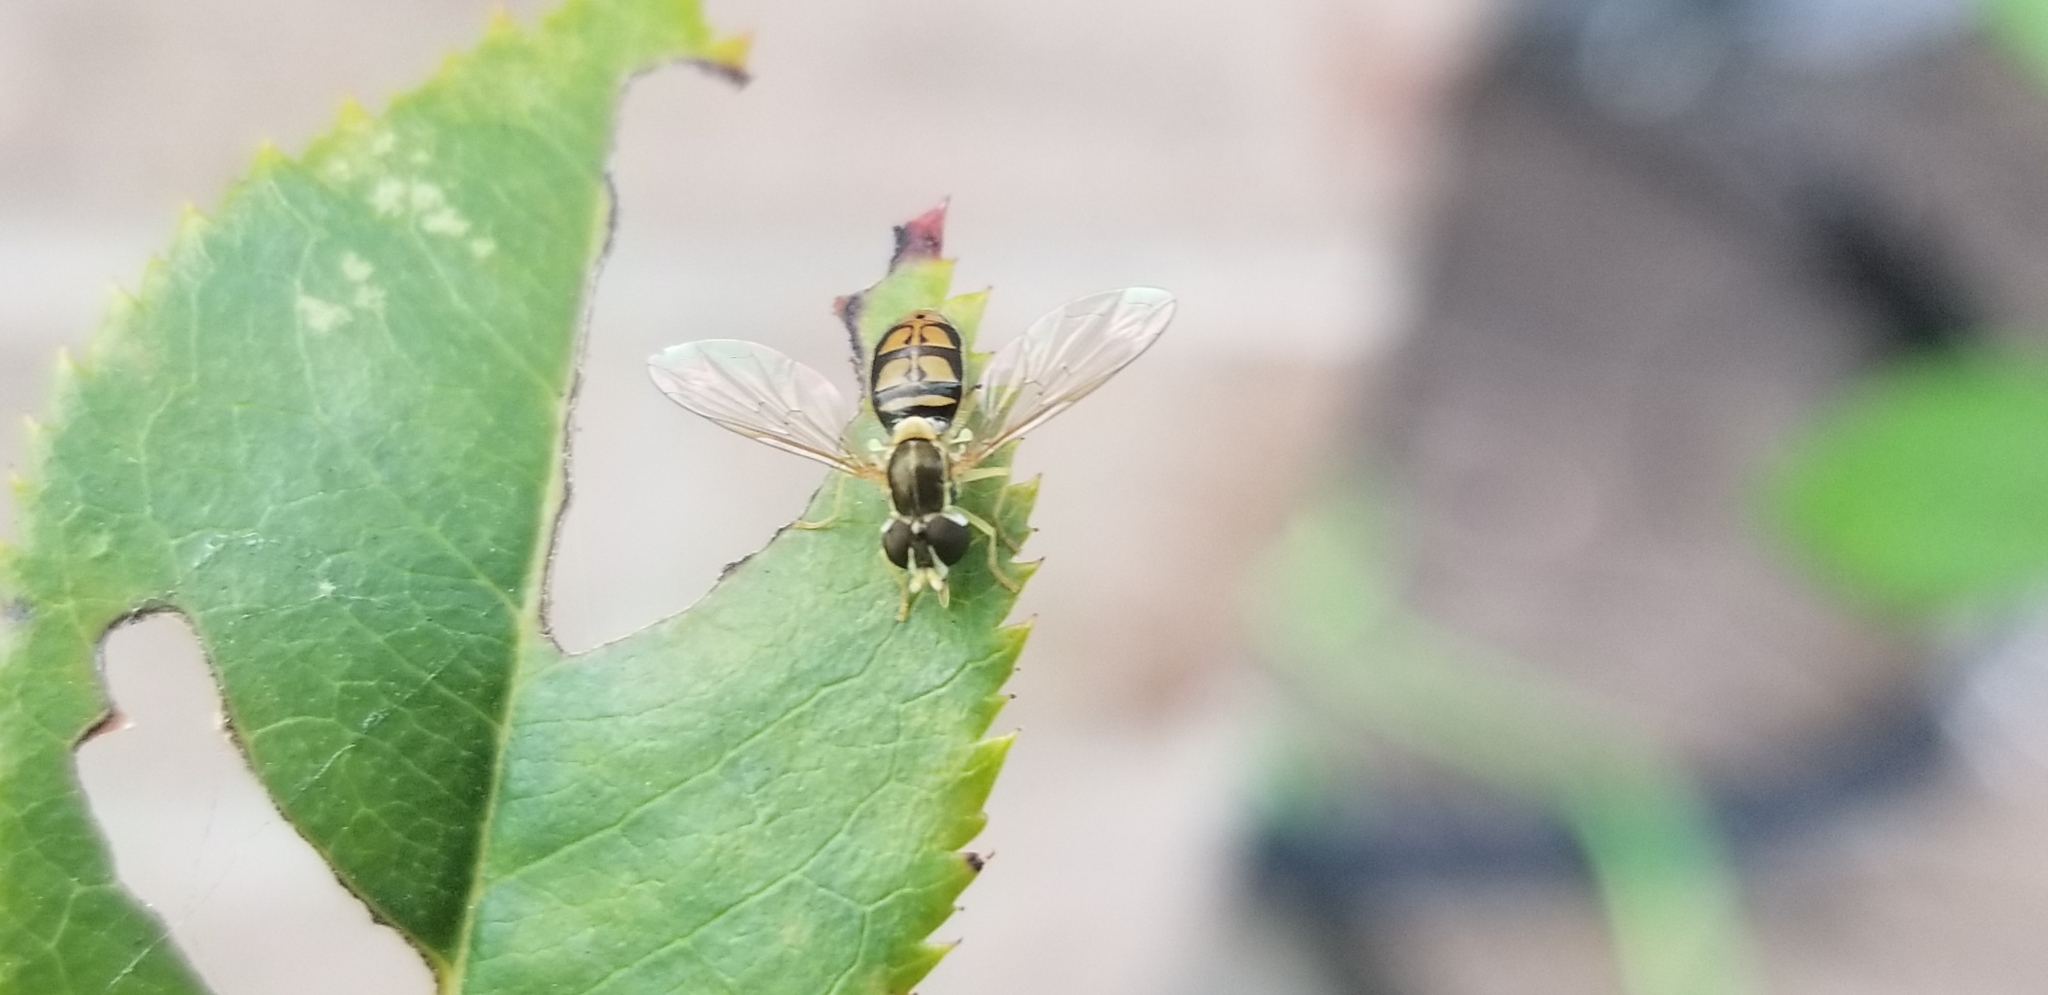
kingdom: Animalia
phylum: Arthropoda
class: Insecta
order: Diptera
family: Syrphidae
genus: Toxomerus
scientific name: Toxomerus marginatus
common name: Syrphid fly
